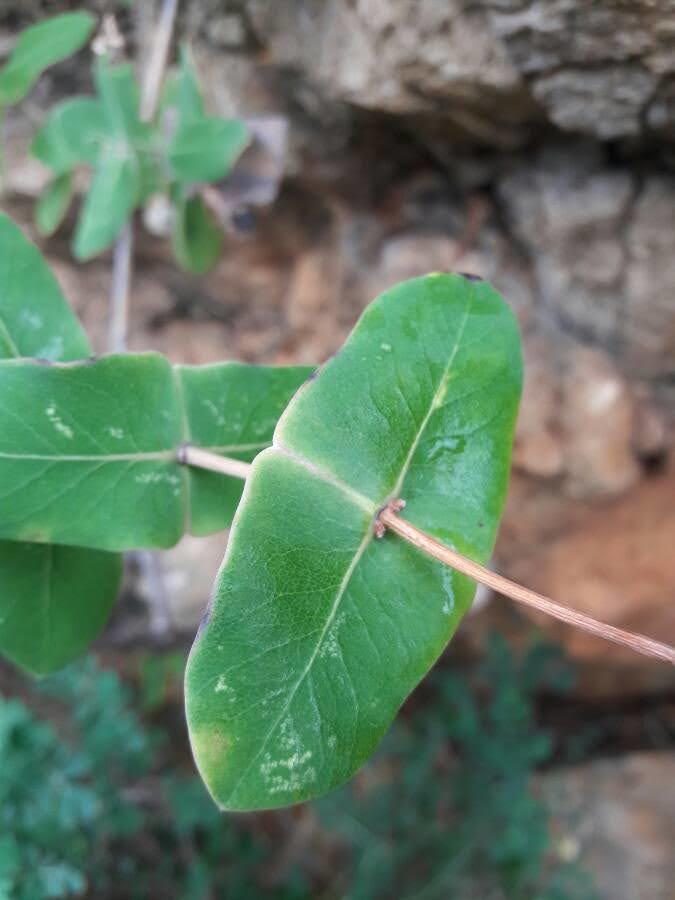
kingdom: Plantae
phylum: Tracheophyta
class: Magnoliopsida
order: Dipsacales
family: Caprifoliaceae
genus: Lonicera
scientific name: Lonicera implexa
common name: Minorca honeysuckle
